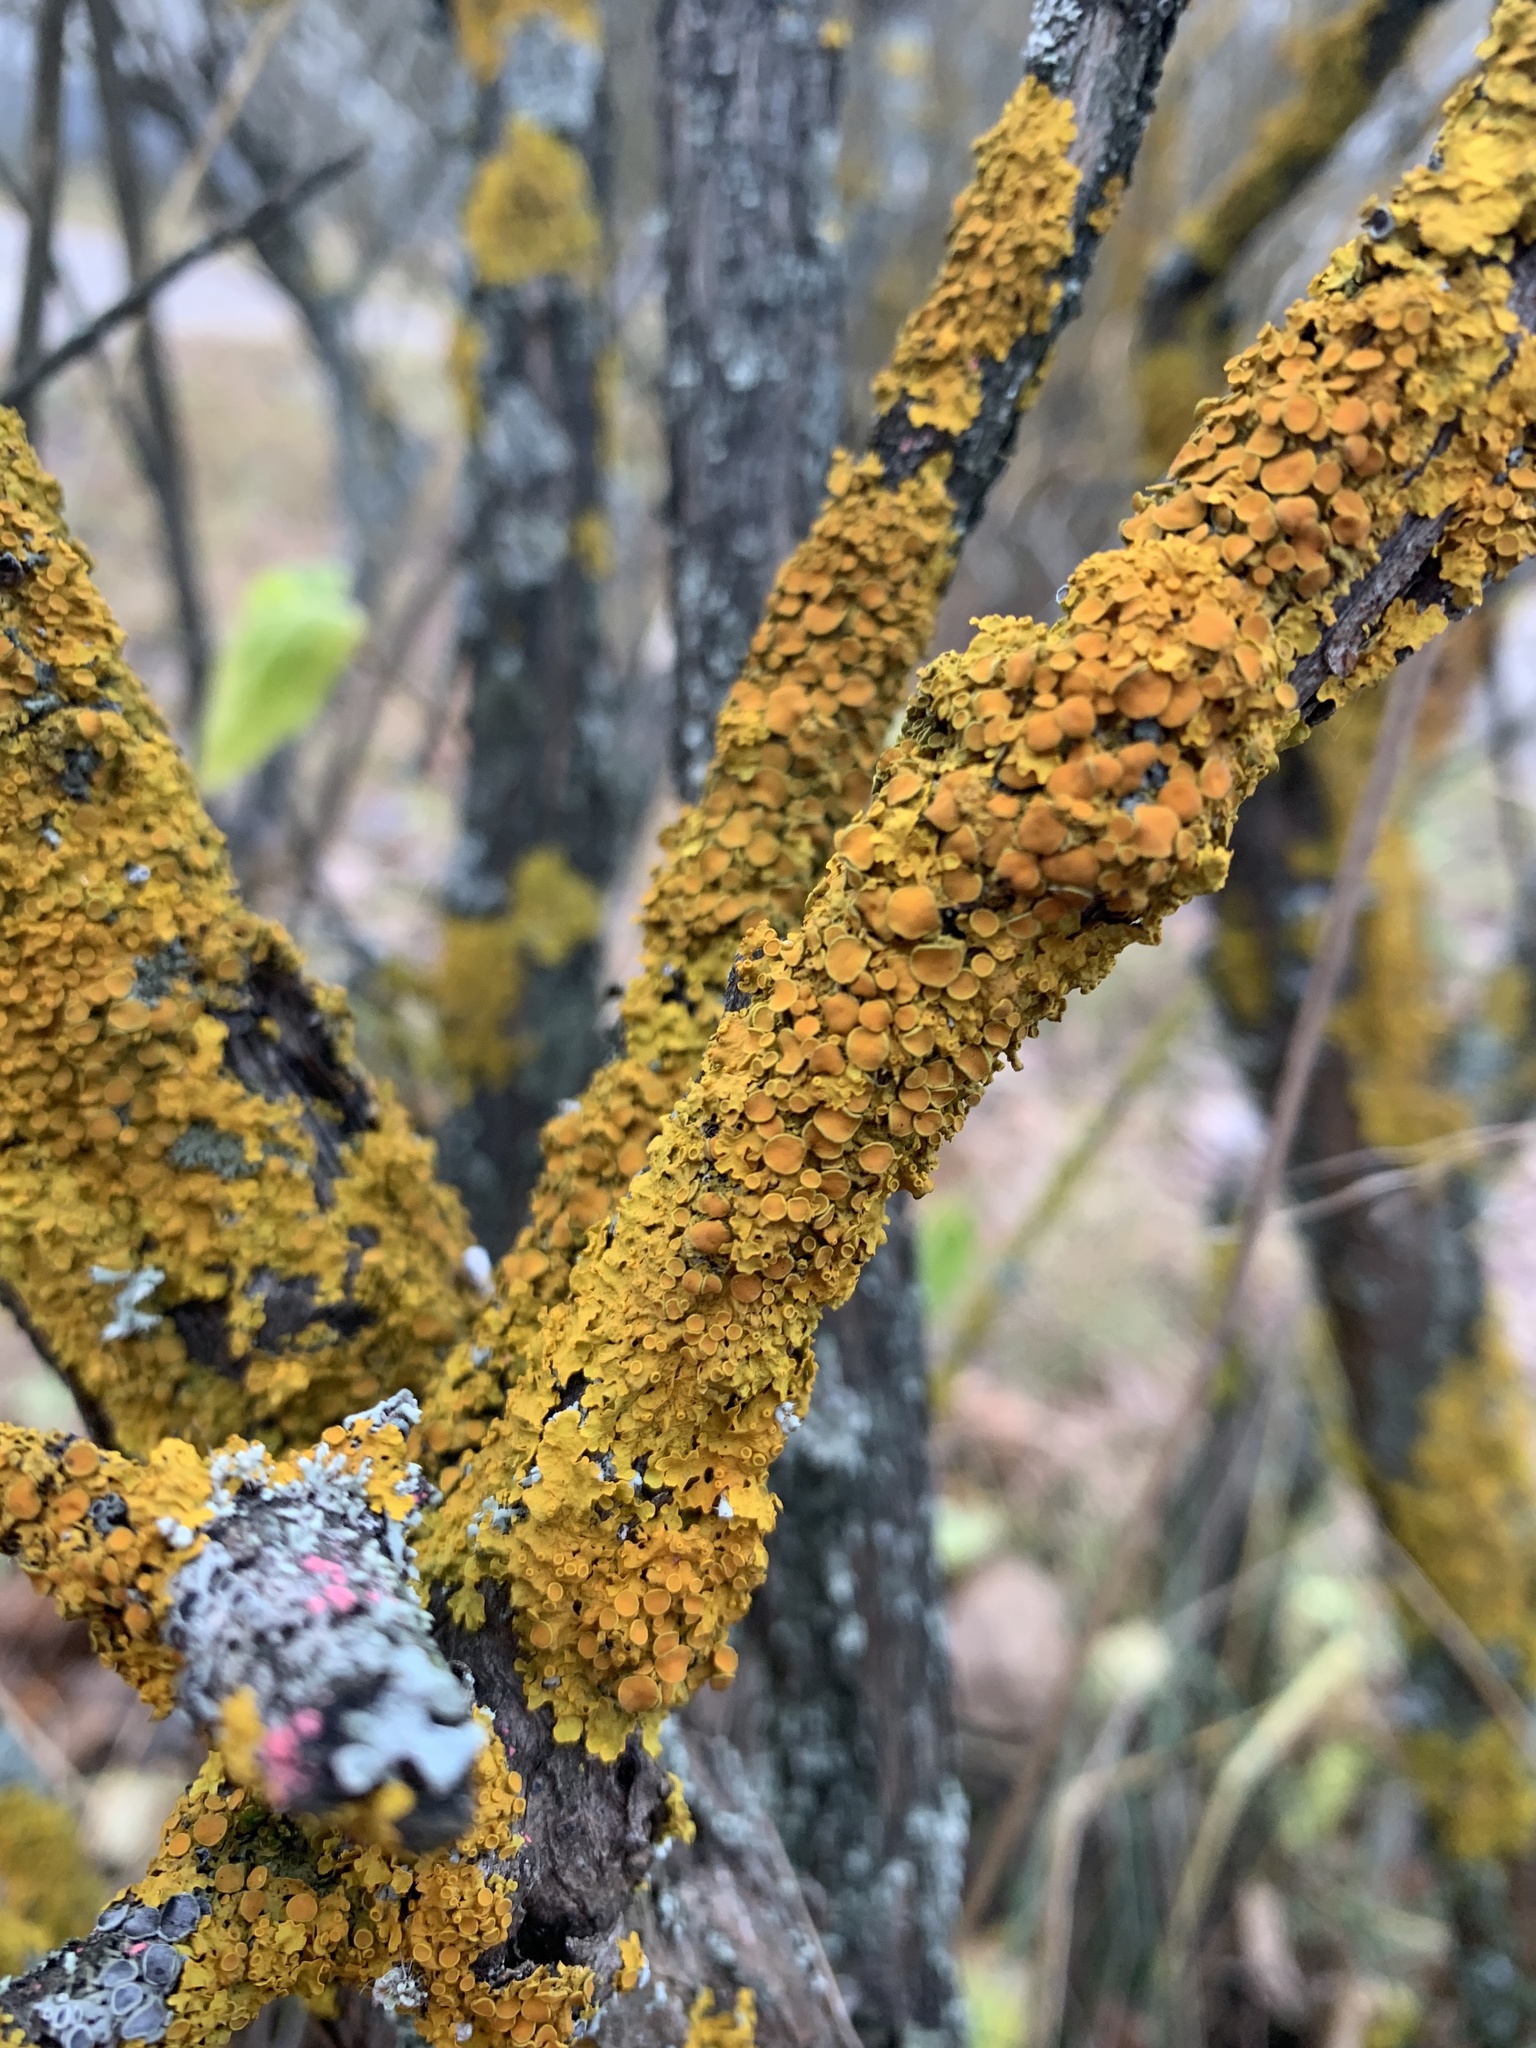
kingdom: Fungi
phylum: Ascomycota
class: Lecanoromycetes
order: Teloschistales
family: Teloschistaceae
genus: Xanthoria
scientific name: Xanthoria parietina
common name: Common orange lichen
